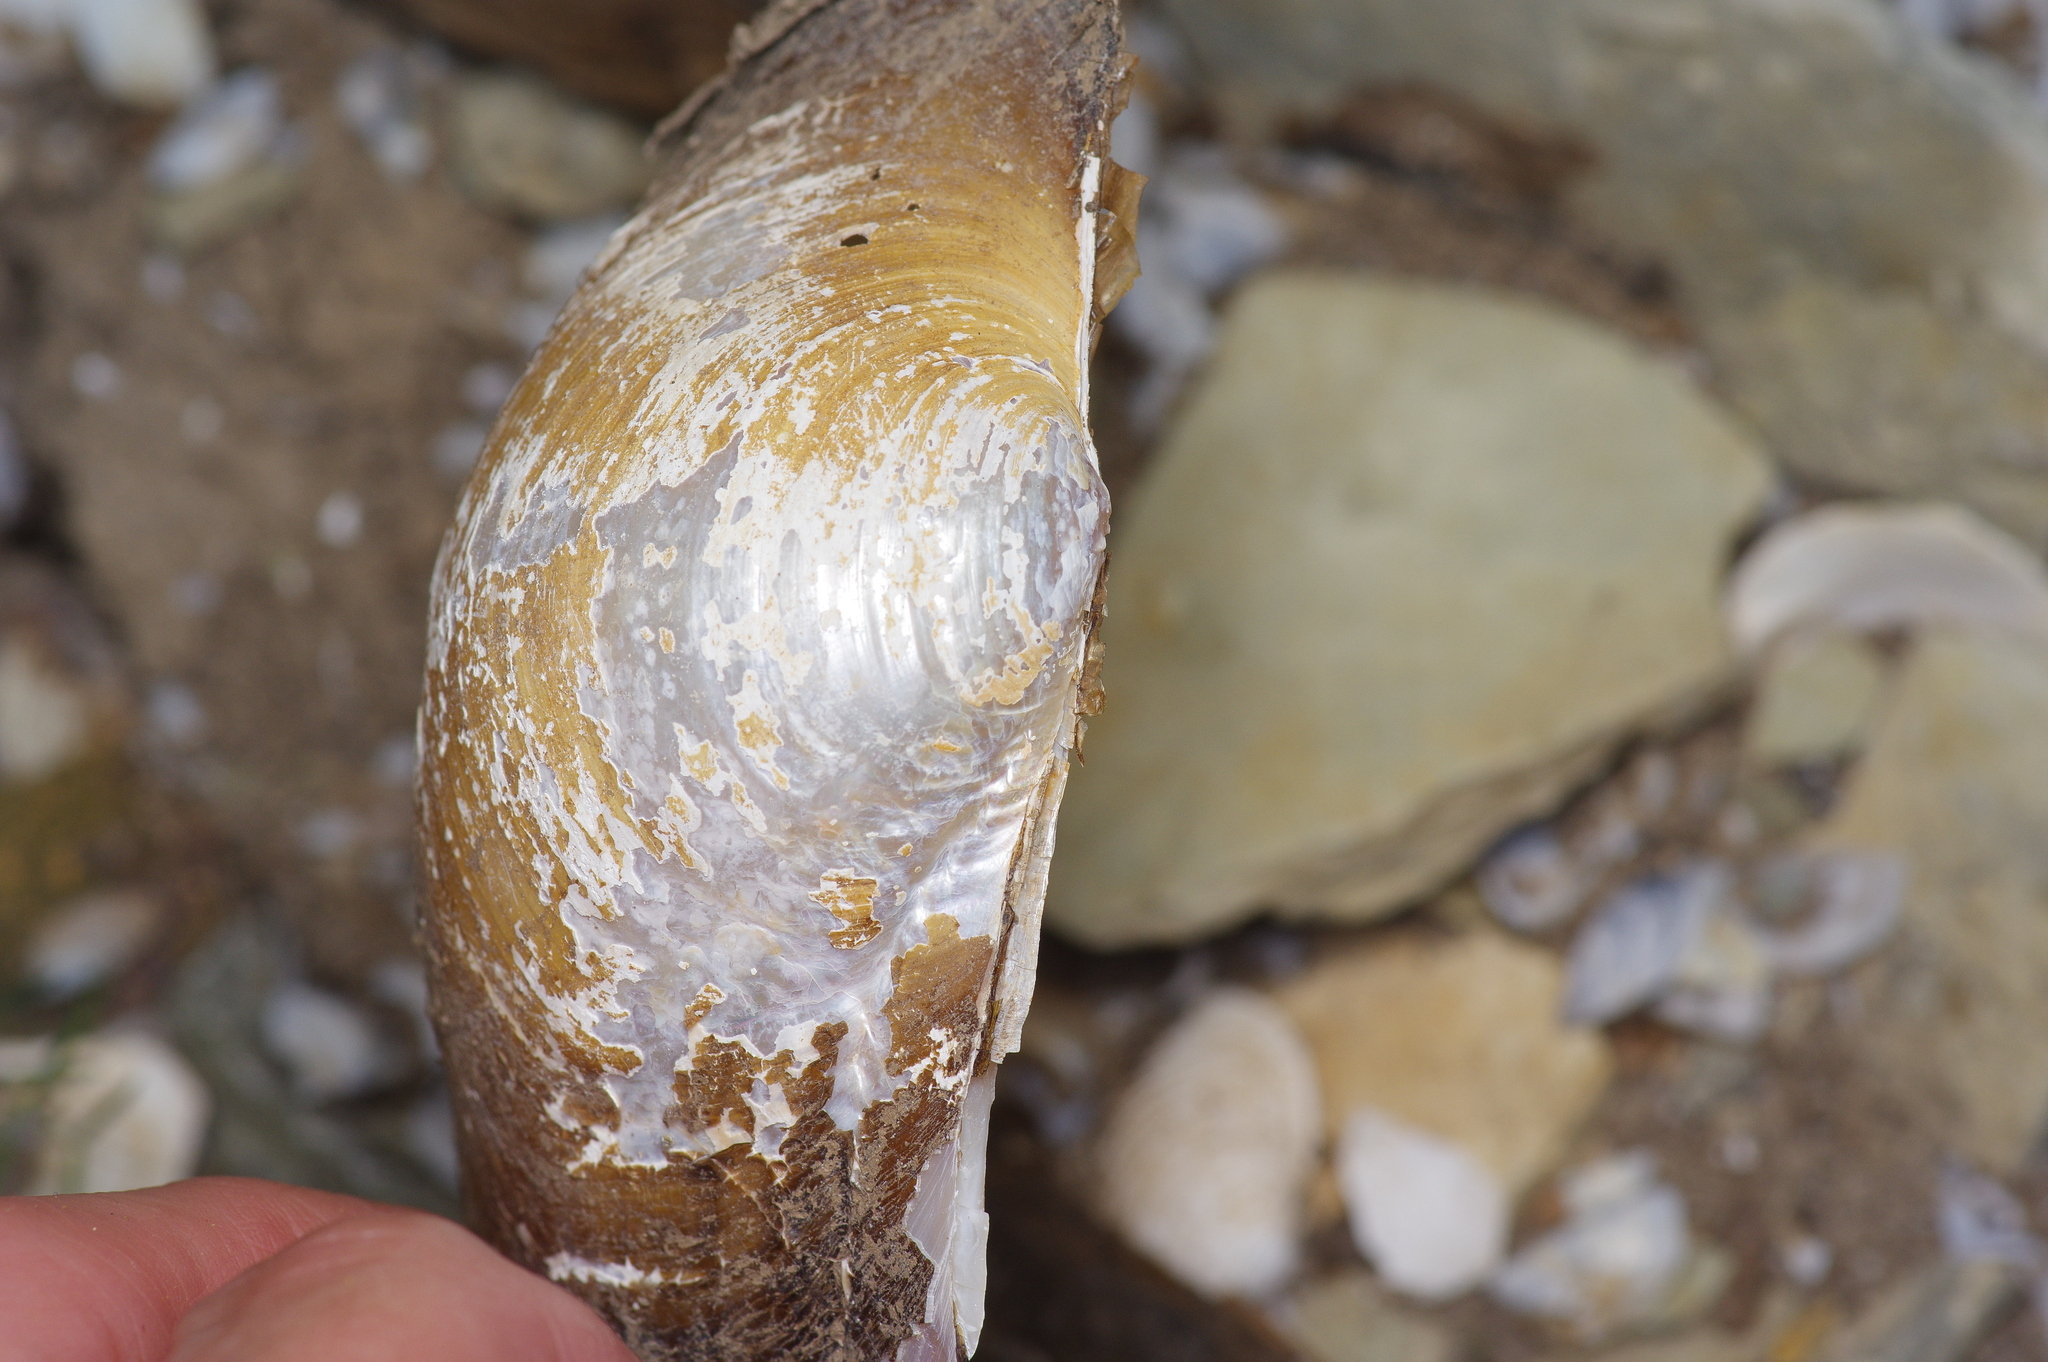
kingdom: Animalia
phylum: Mollusca
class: Bivalvia
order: Unionida
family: Unionidae
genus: Pyganodon
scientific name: Pyganodon grandis
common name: Giant floater
